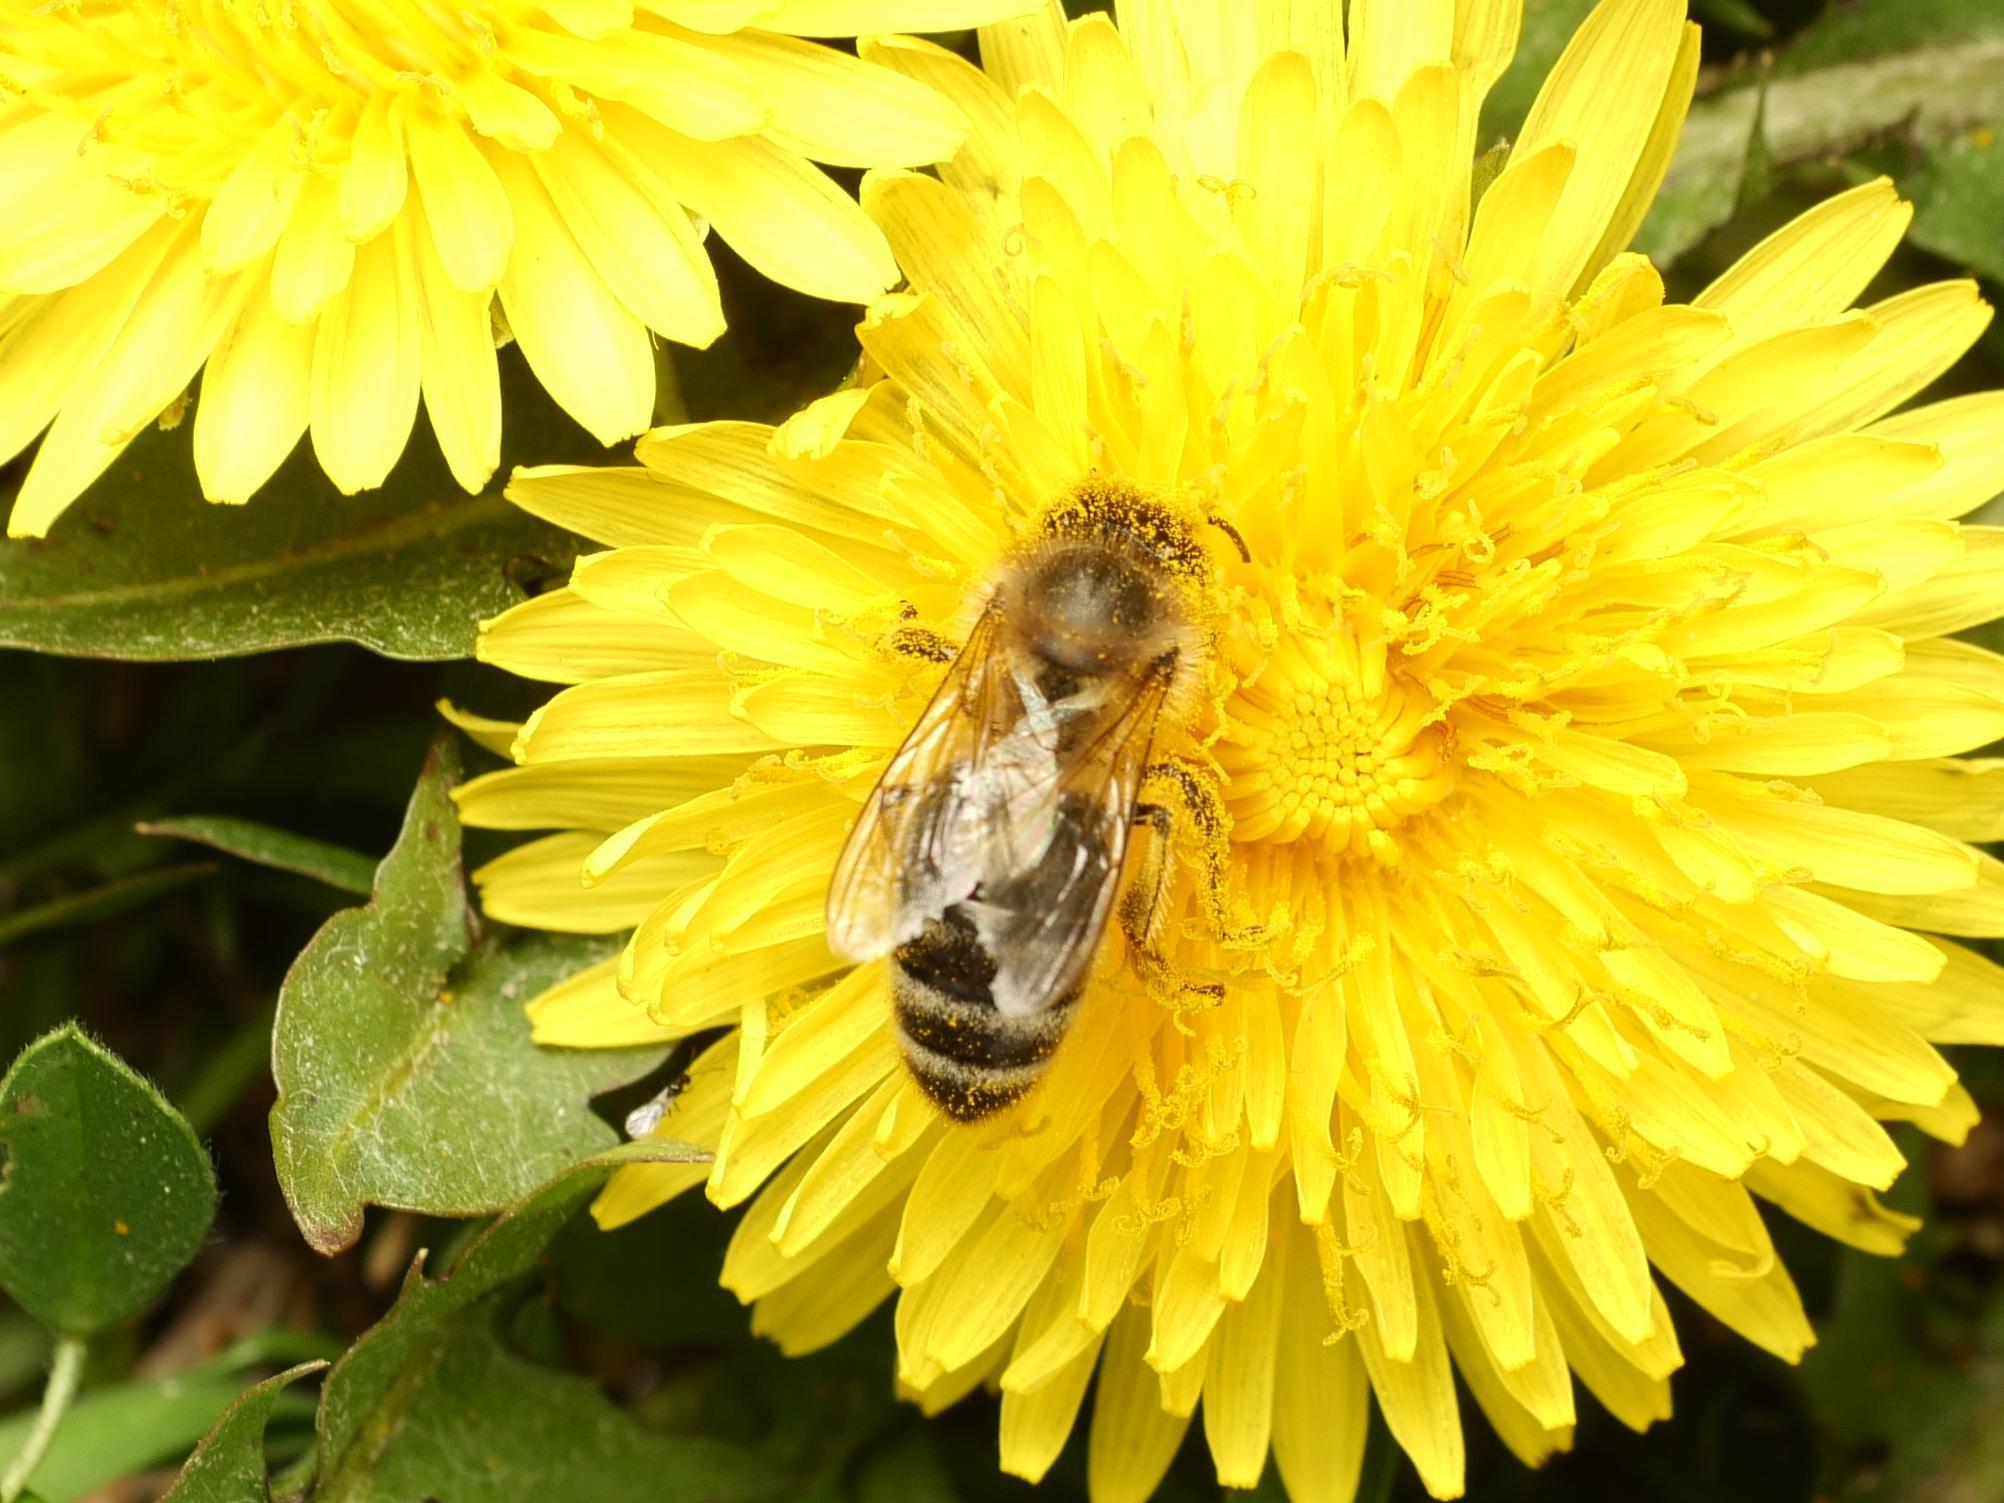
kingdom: Animalia
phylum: Arthropoda
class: Insecta
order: Hymenoptera
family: Apidae
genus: Apis
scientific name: Apis mellifera
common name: Honey bee
